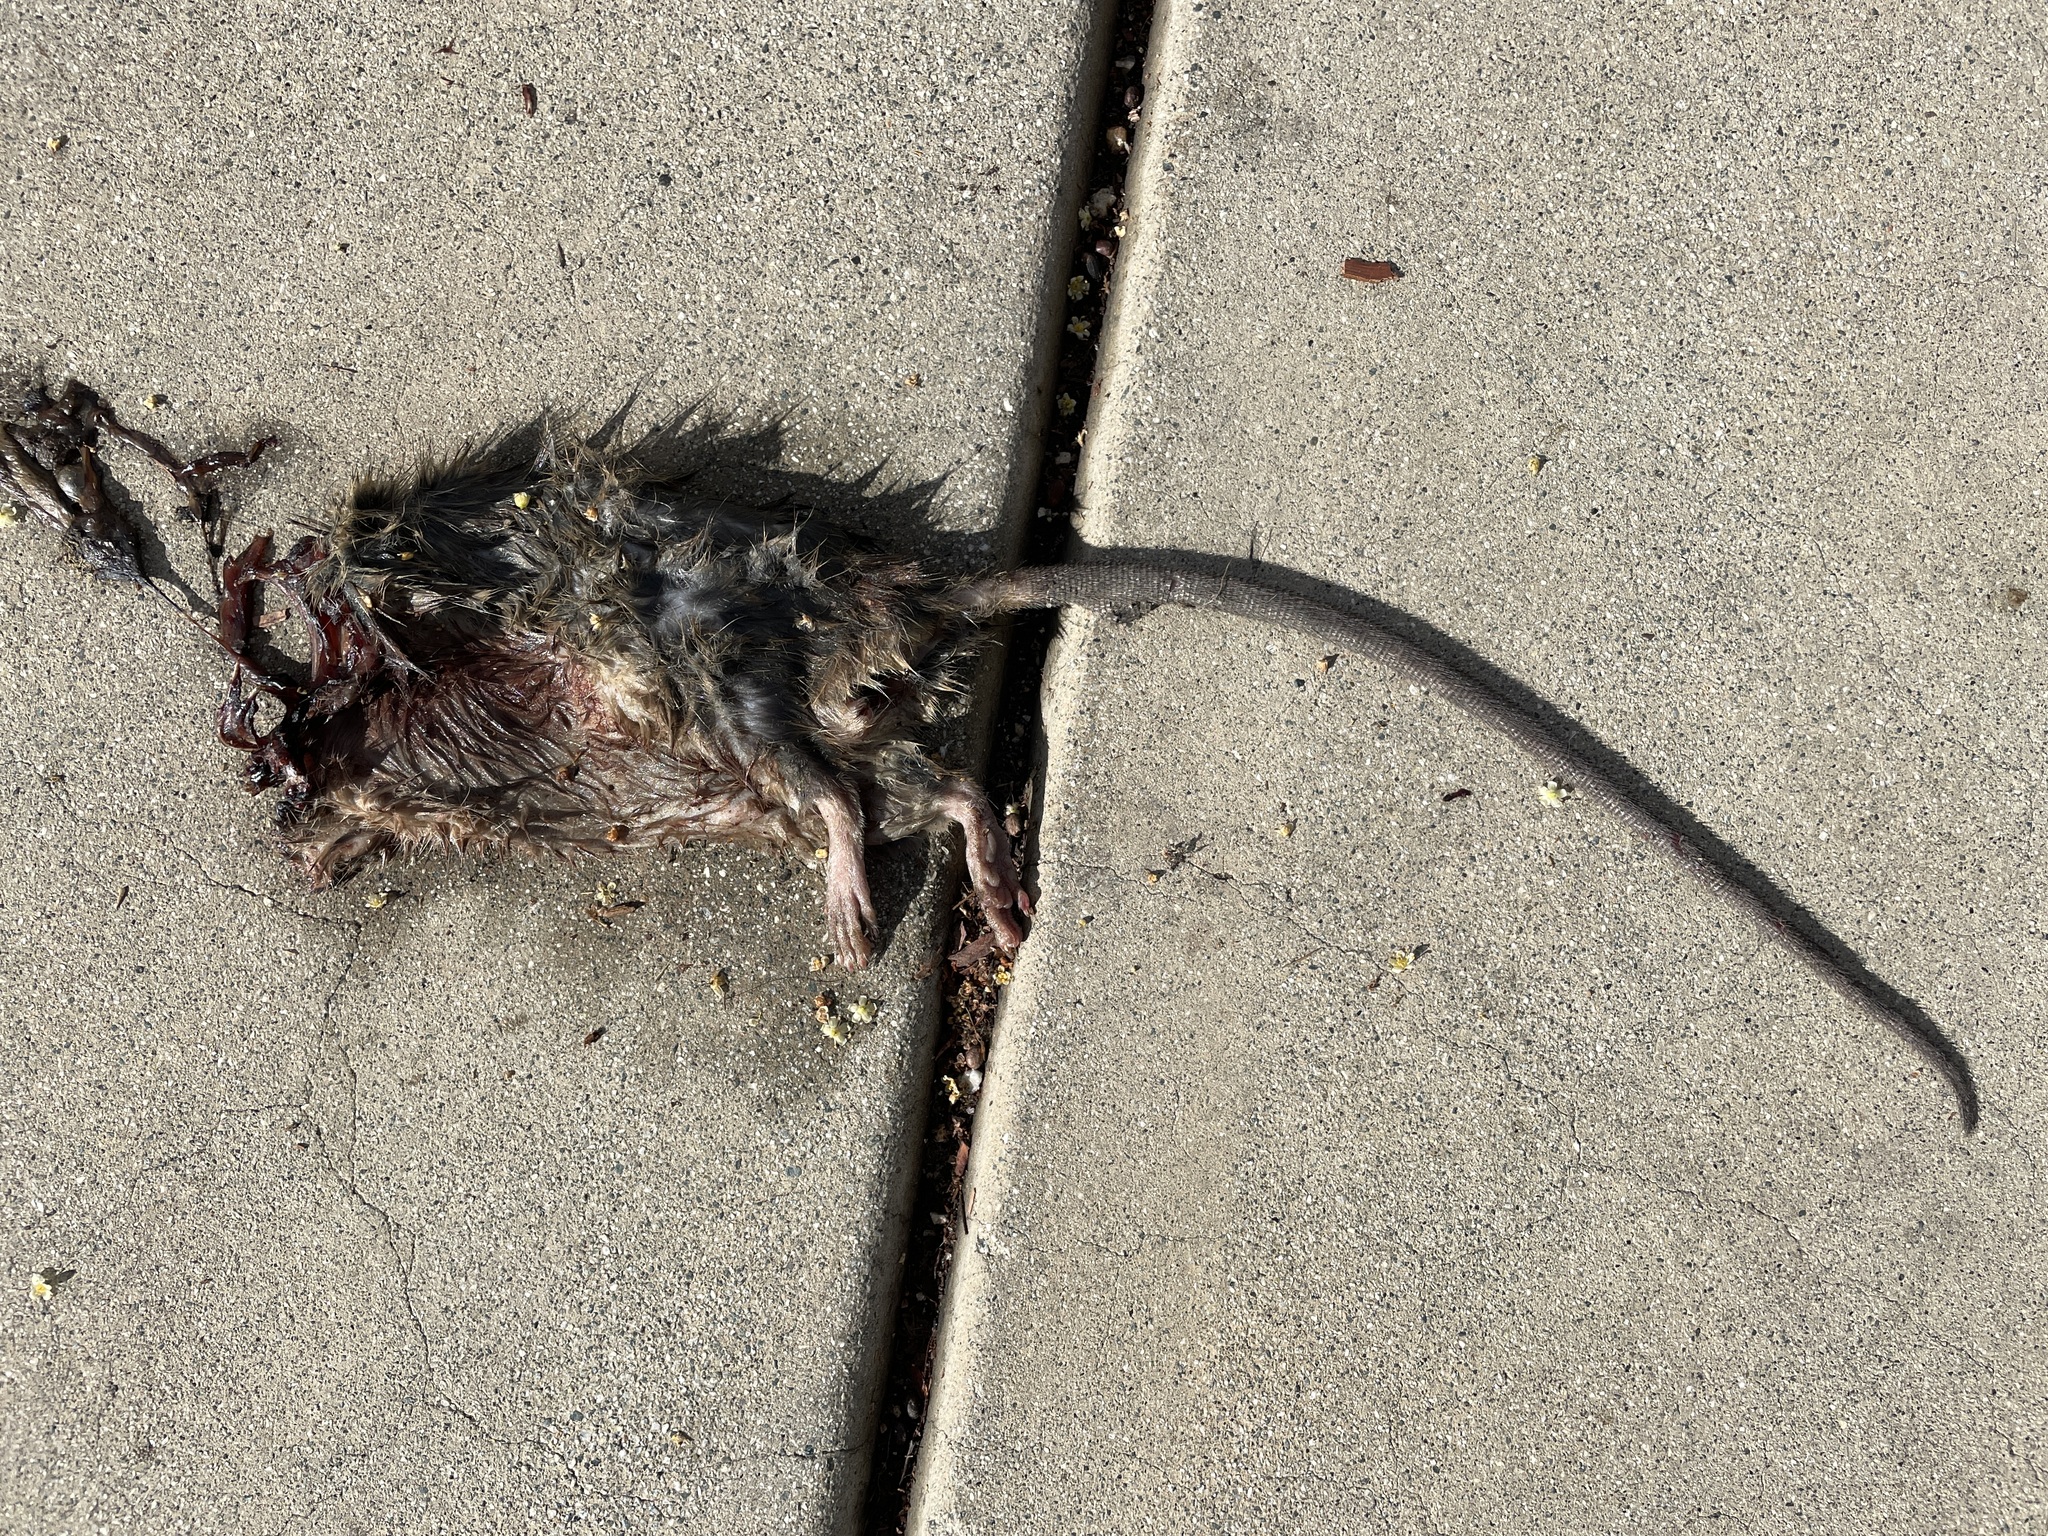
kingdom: Animalia
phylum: Chordata
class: Mammalia
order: Rodentia
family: Muridae
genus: Rattus
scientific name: Rattus rattus
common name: Black rat
